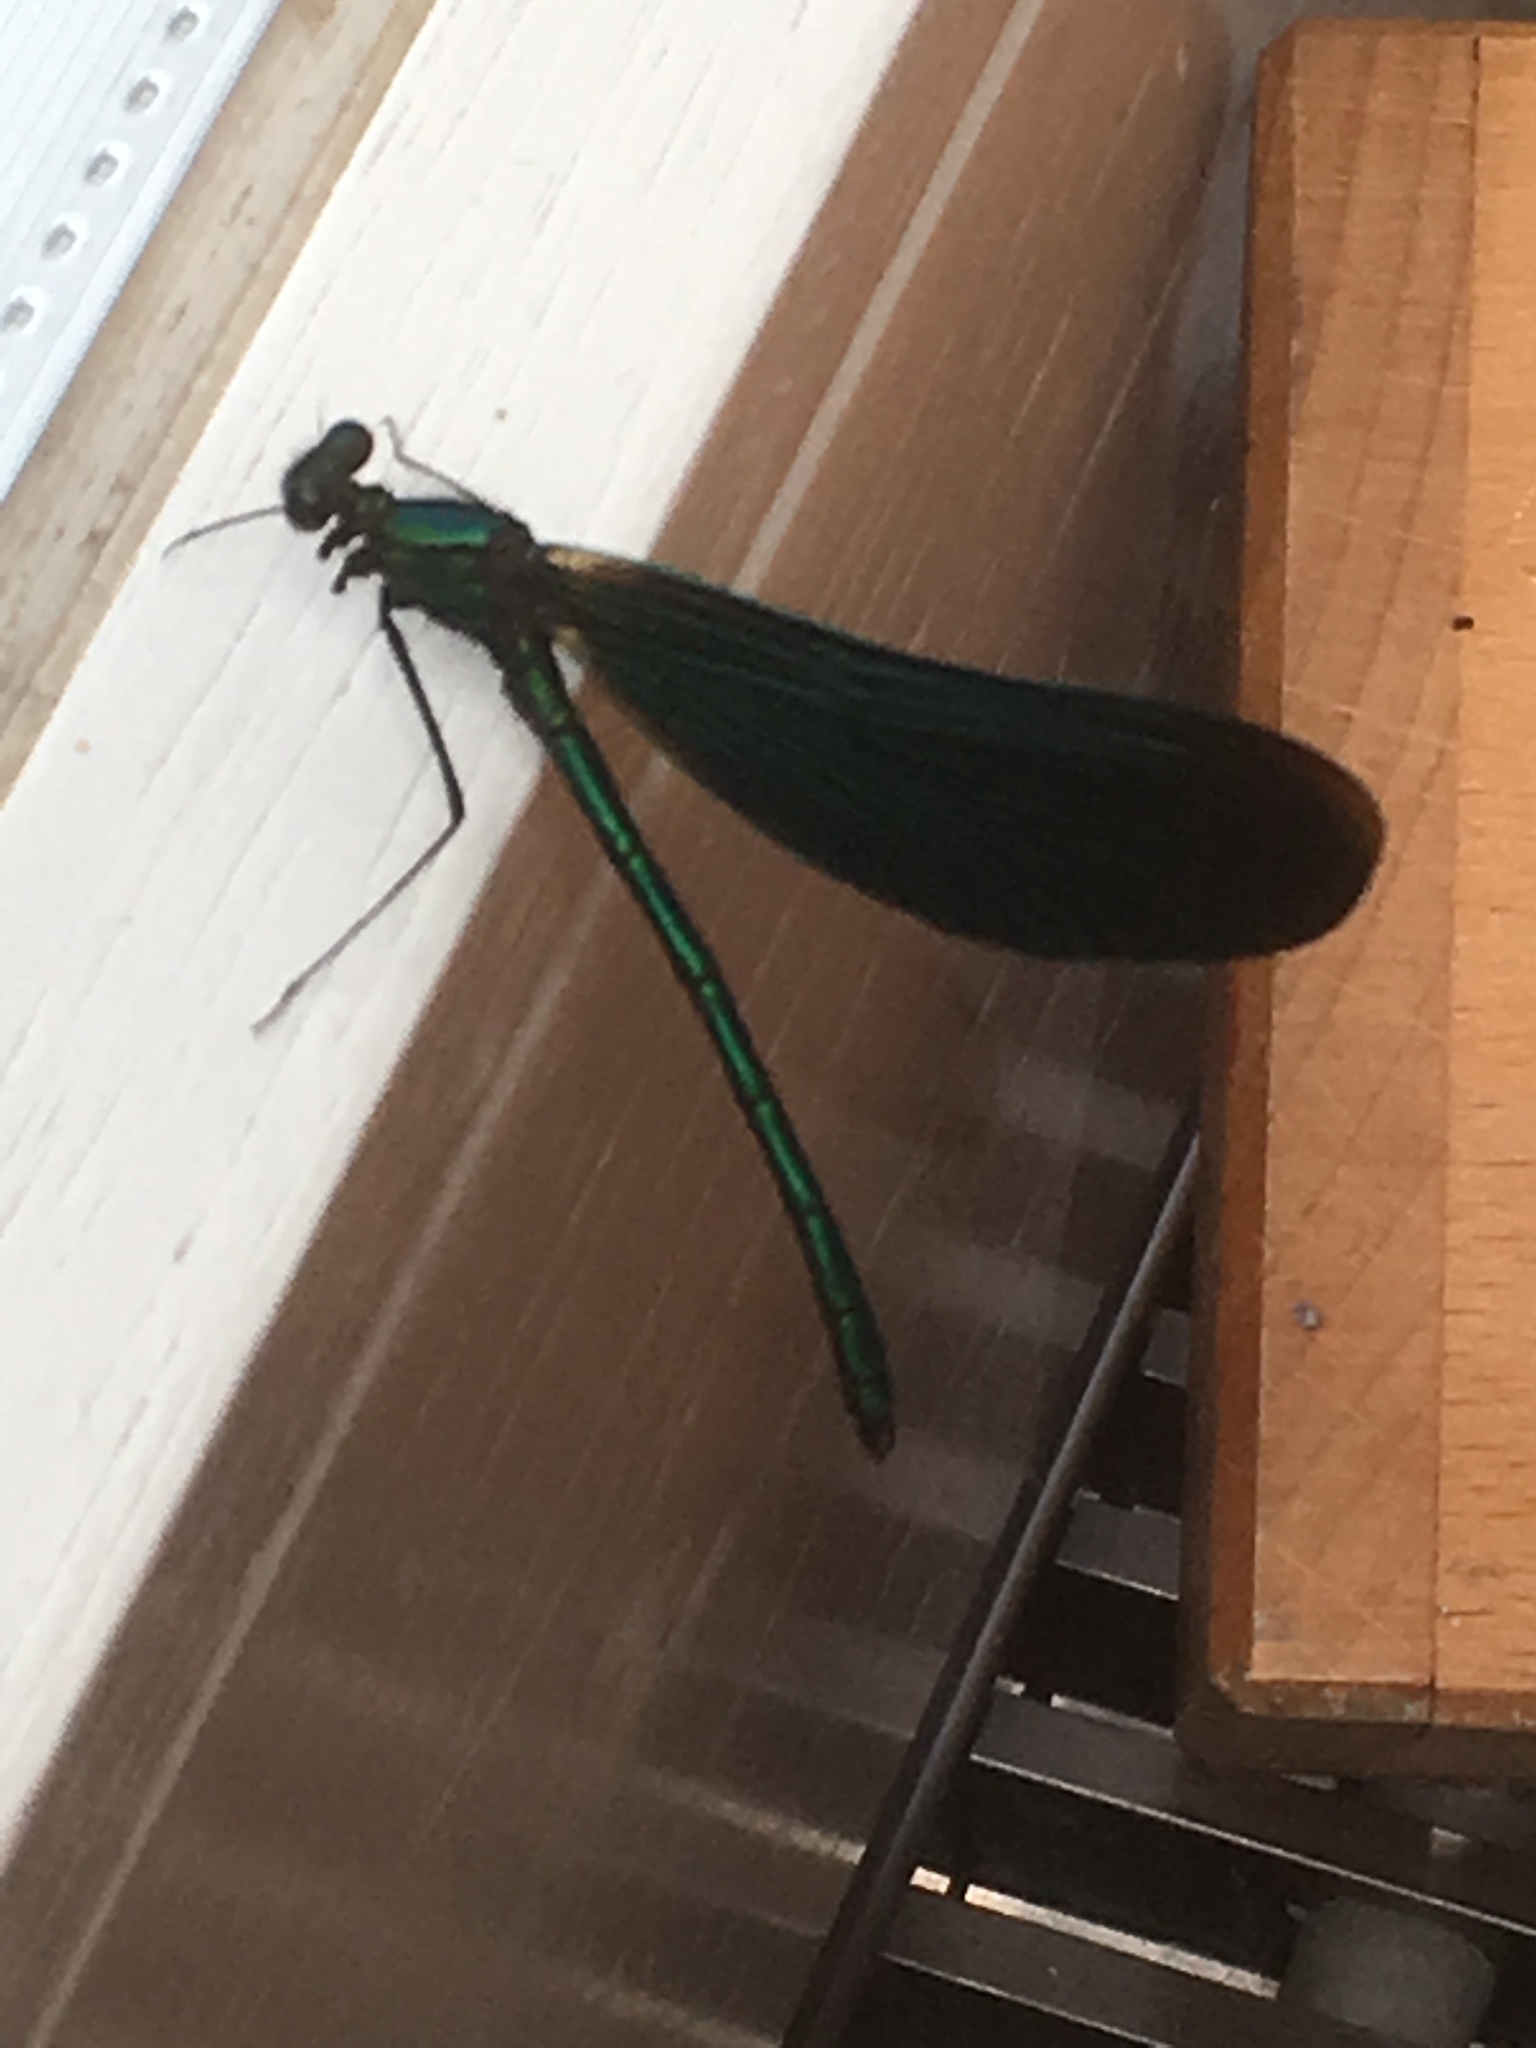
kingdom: Animalia
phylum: Arthropoda
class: Insecta
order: Odonata
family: Calopterygidae
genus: Calopteryx
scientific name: Calopteryx virgo
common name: Beautiful demoiselle
